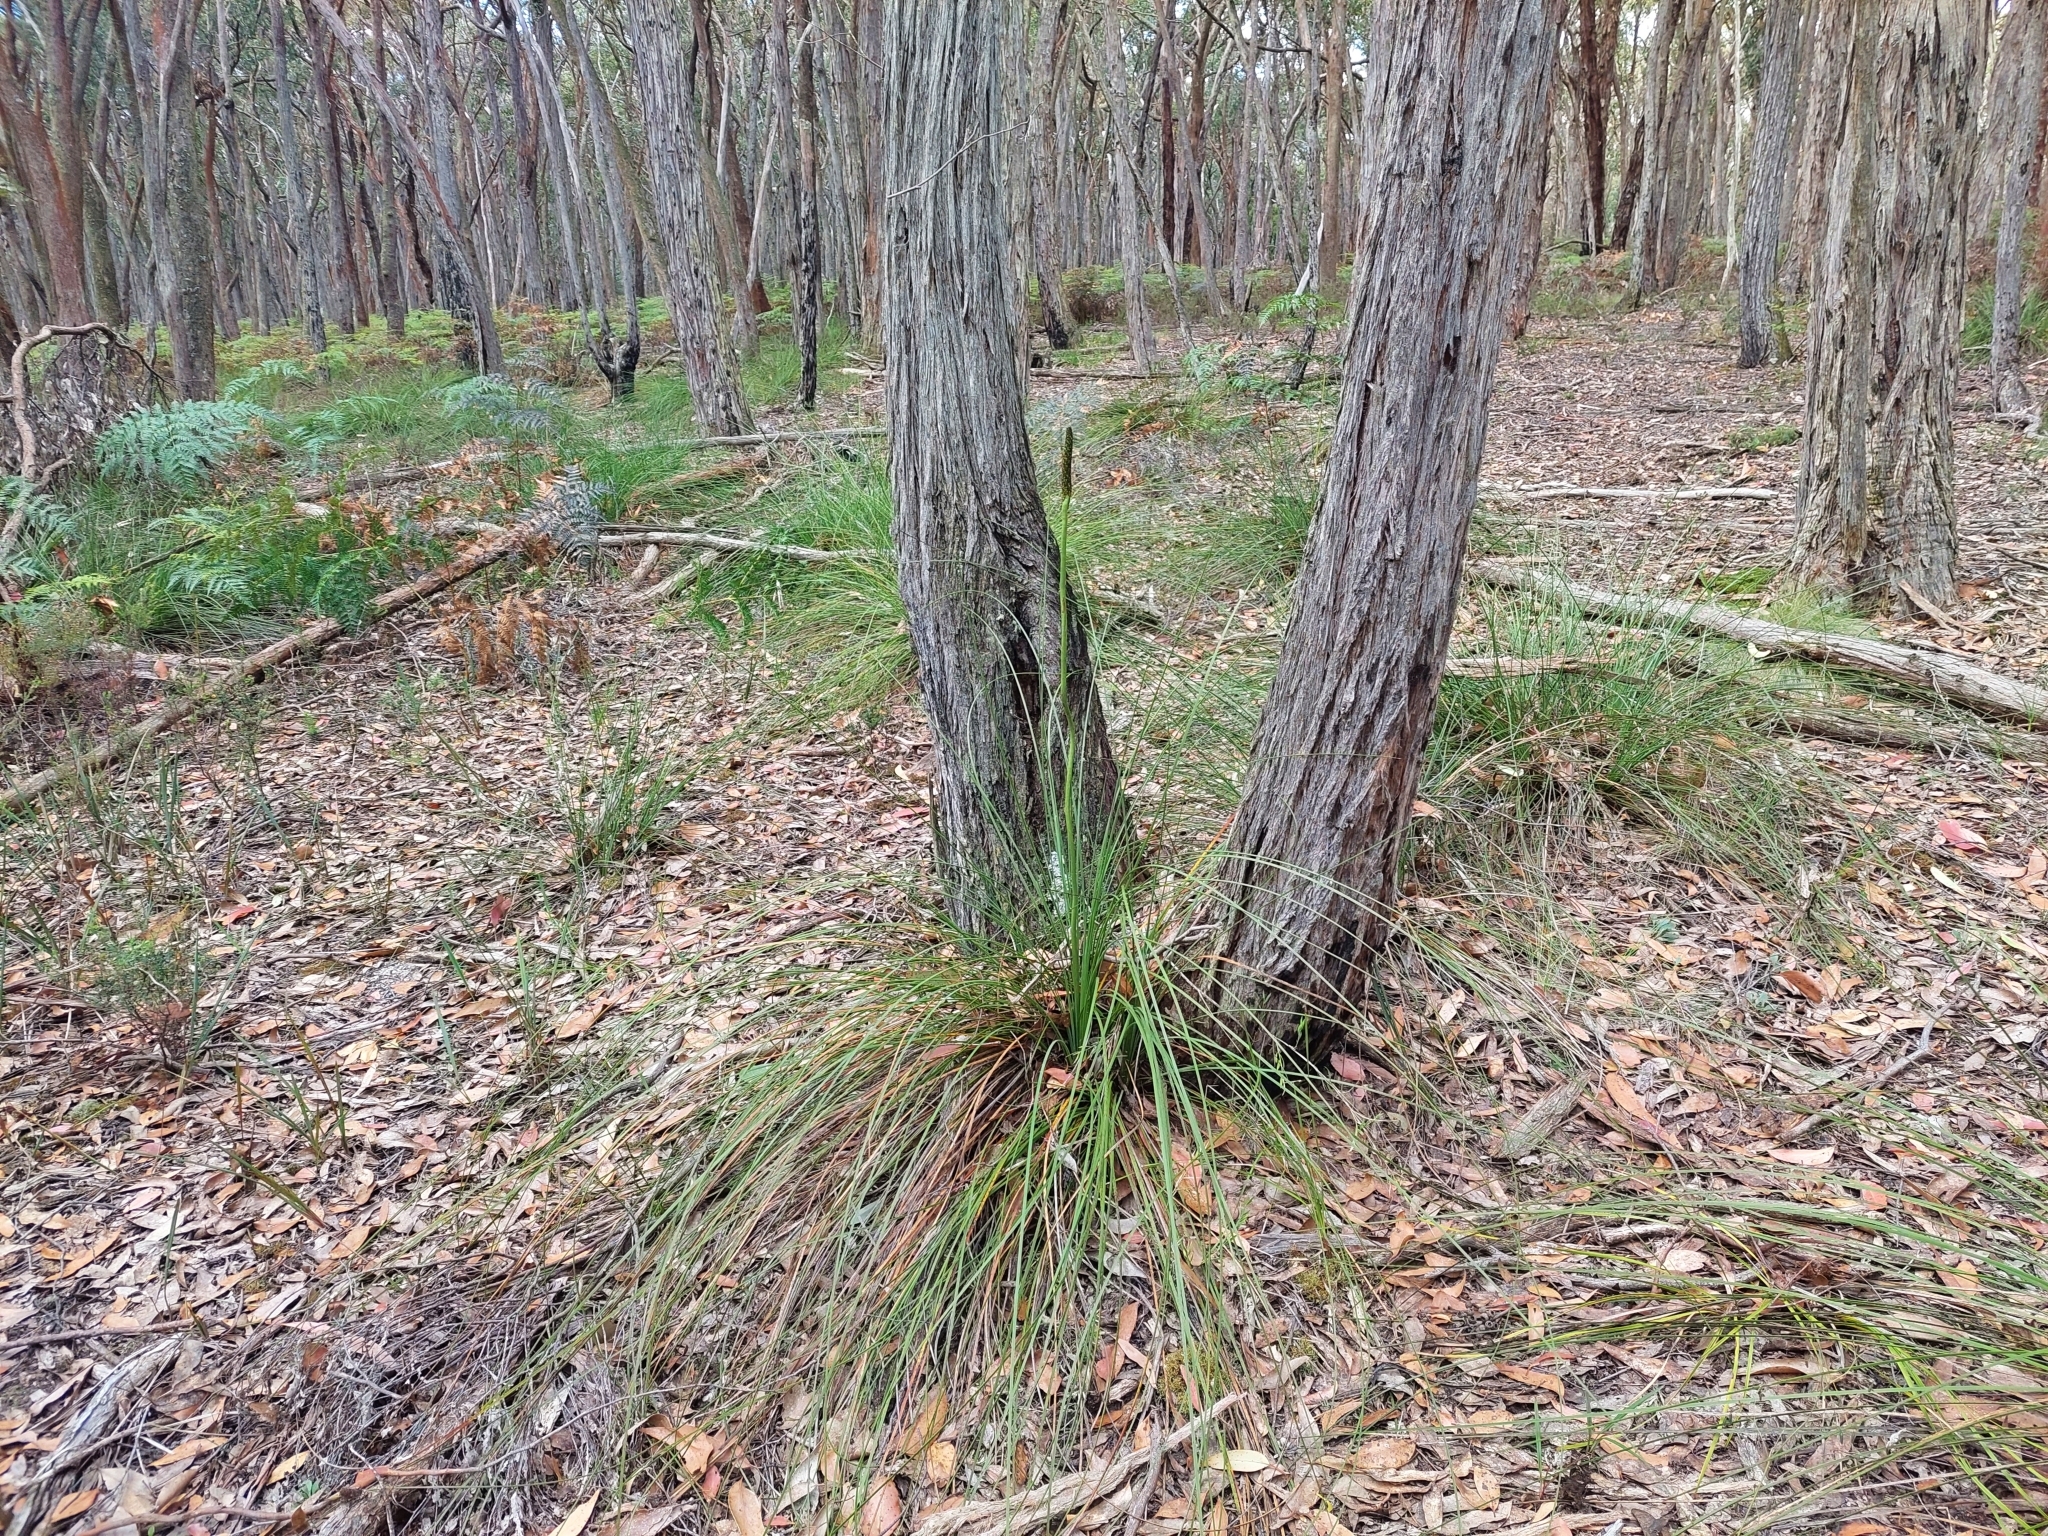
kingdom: Plantae
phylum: Tracheophyta
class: Liliopsida
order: Asparagales
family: Asphodelaceae
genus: Xanthorrhoea
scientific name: Xanthorrhoea minor
